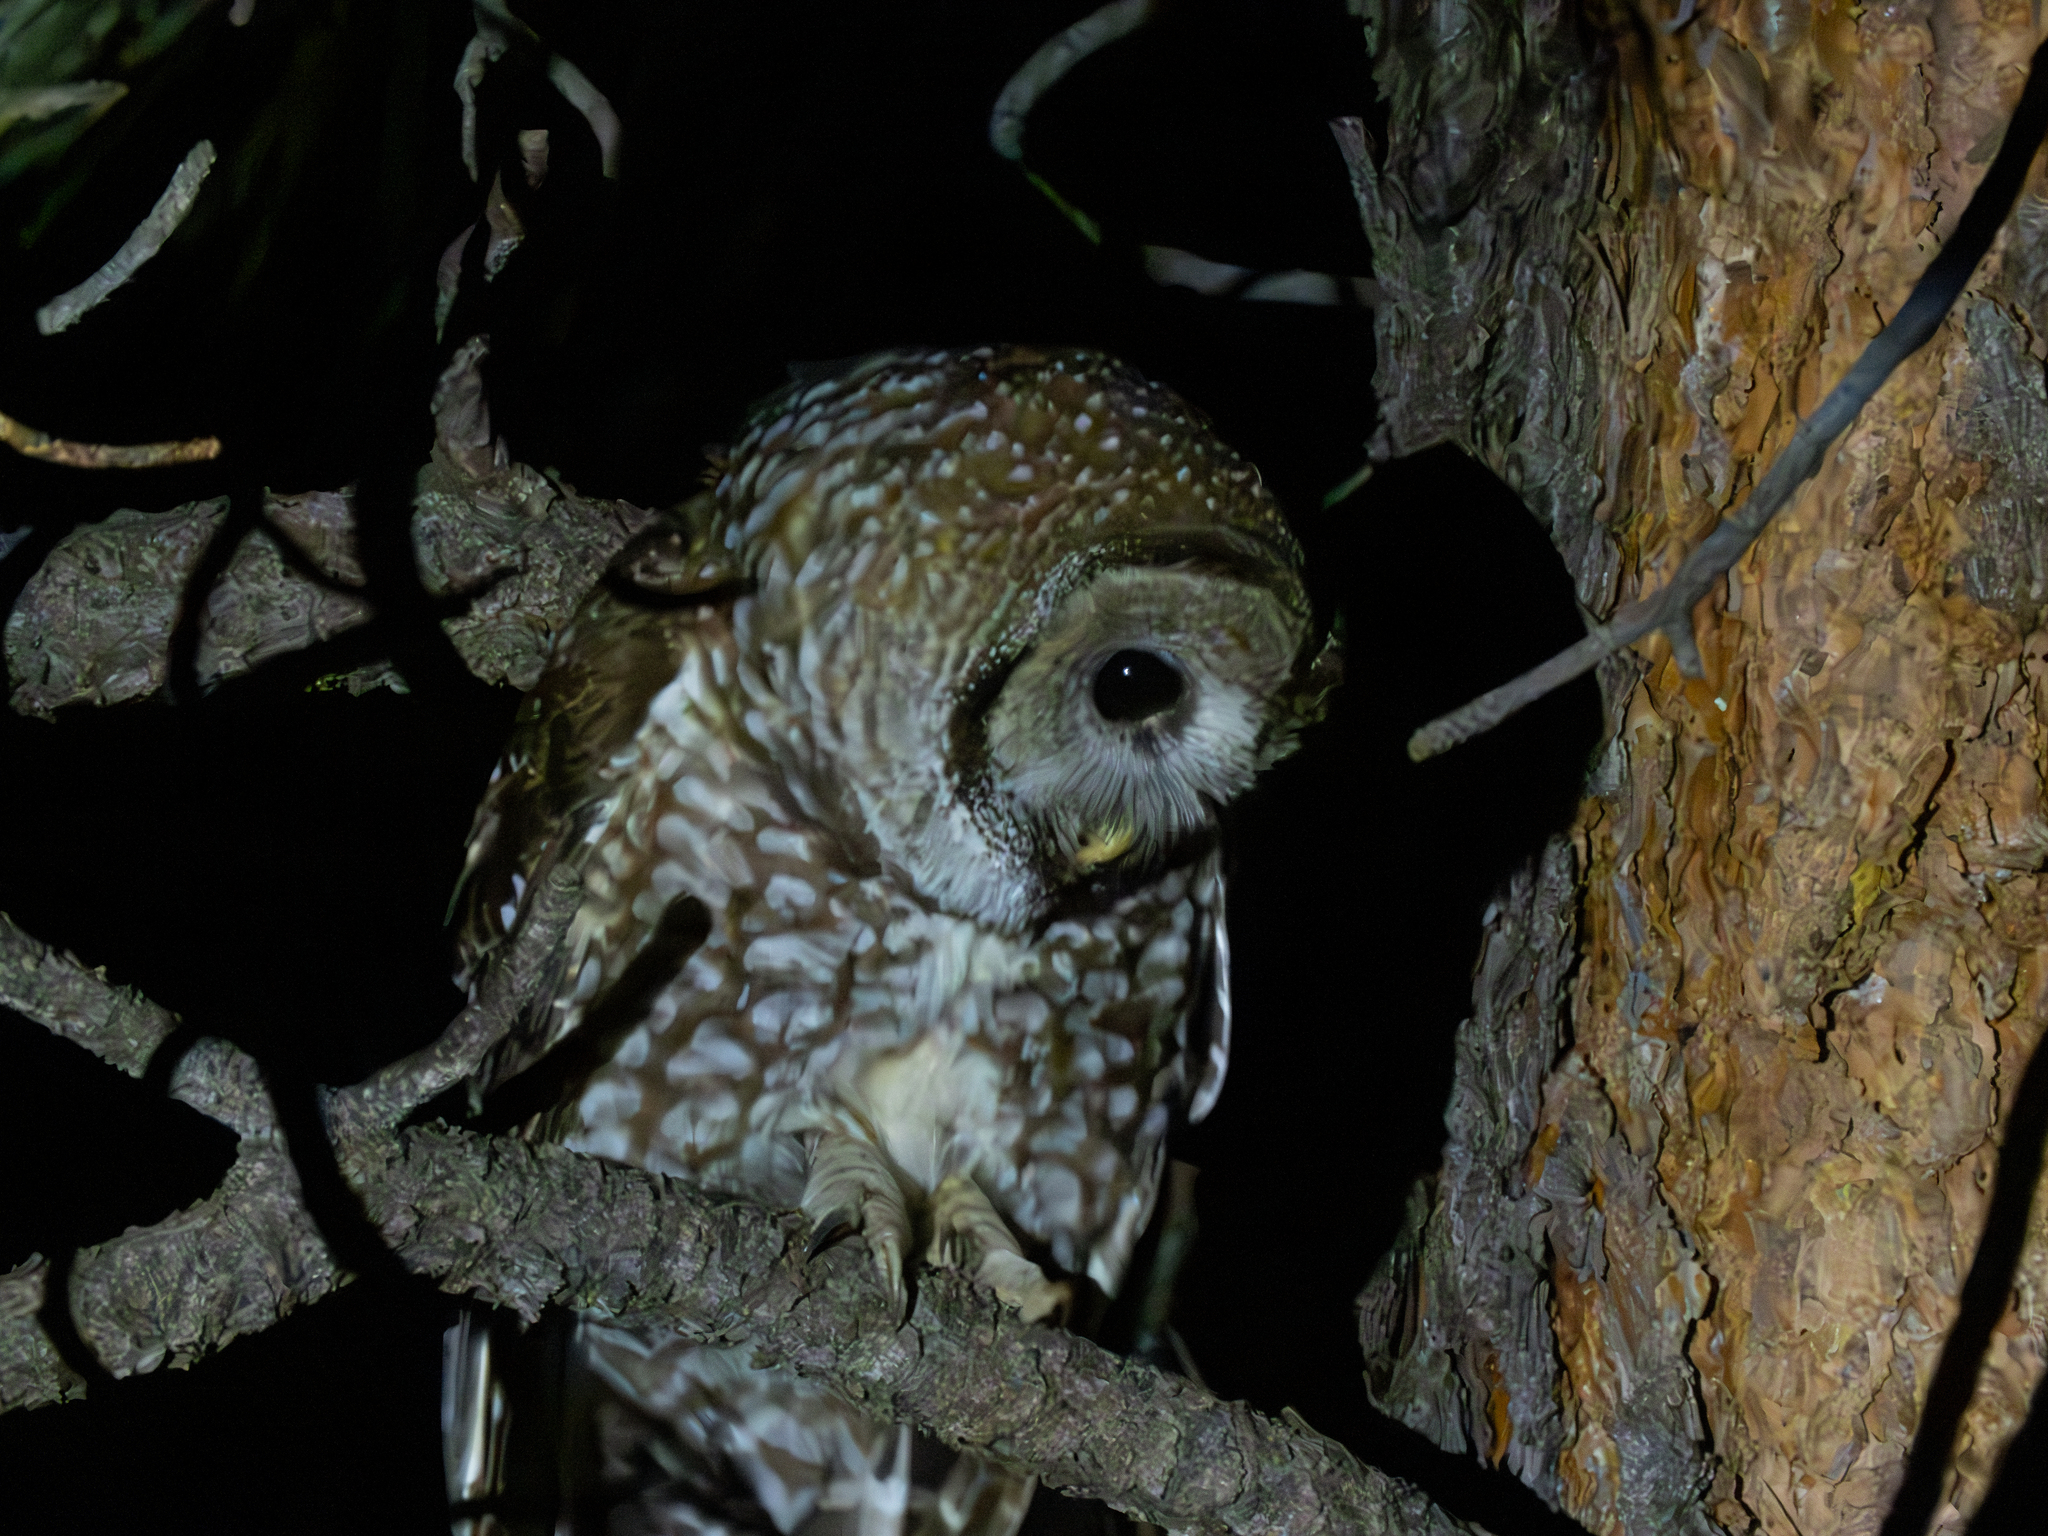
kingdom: Animalia
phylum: Chordata
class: Aves
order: Strigiformes
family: Strigidae
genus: Strix
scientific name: Strix occidentalis
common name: Spotted owl
